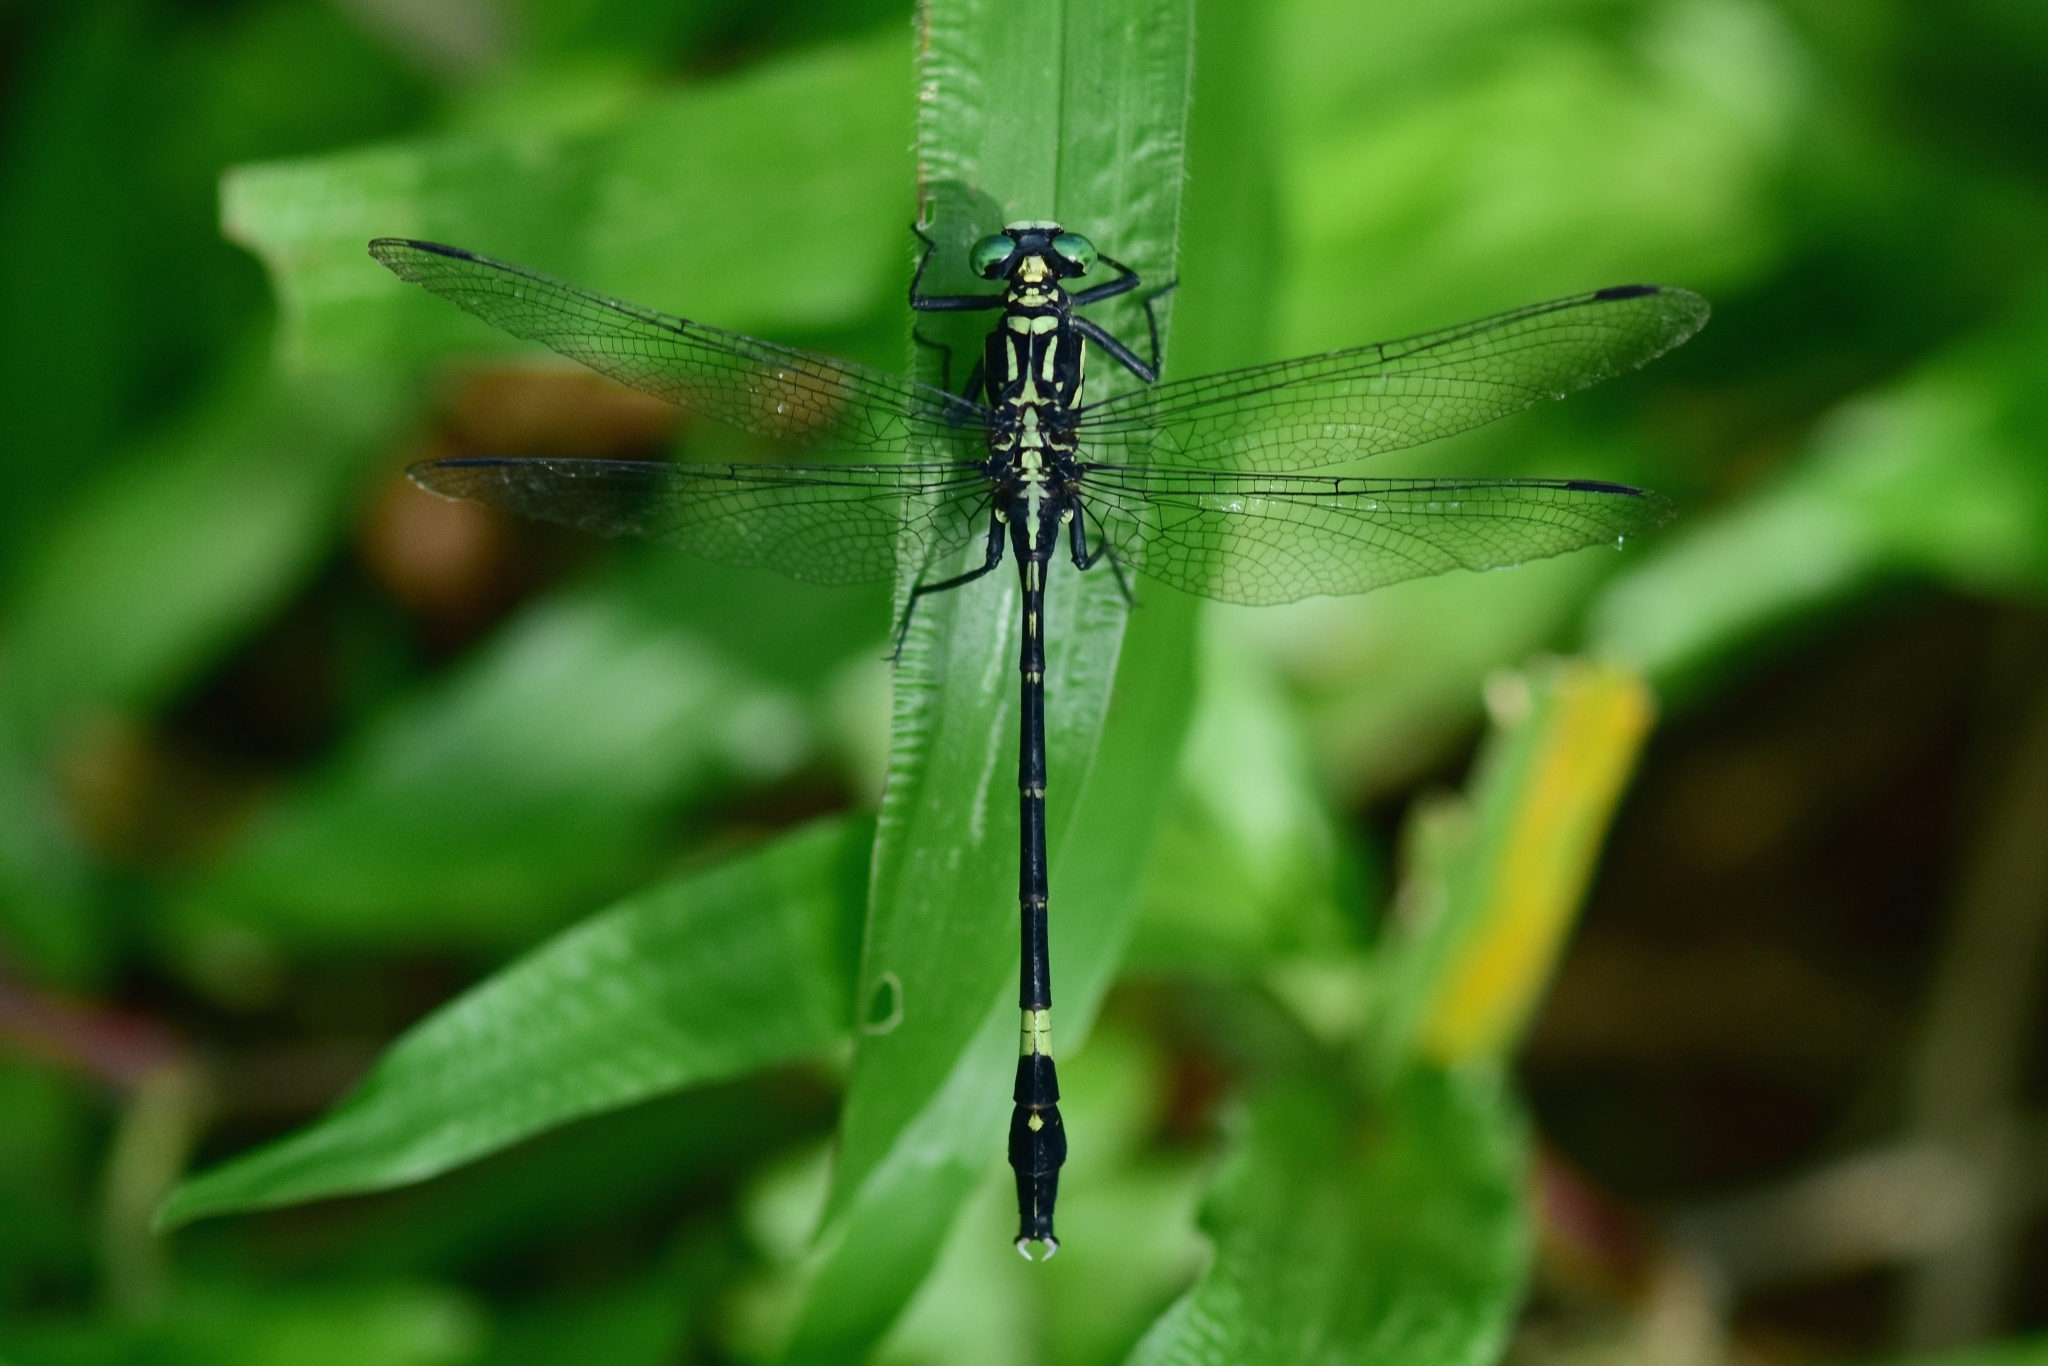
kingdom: Animalia
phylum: Arthropoda
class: Insecta
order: Odonata
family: Gomphidae
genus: Merogomphus
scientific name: Merogomphus tamaracherriensis
